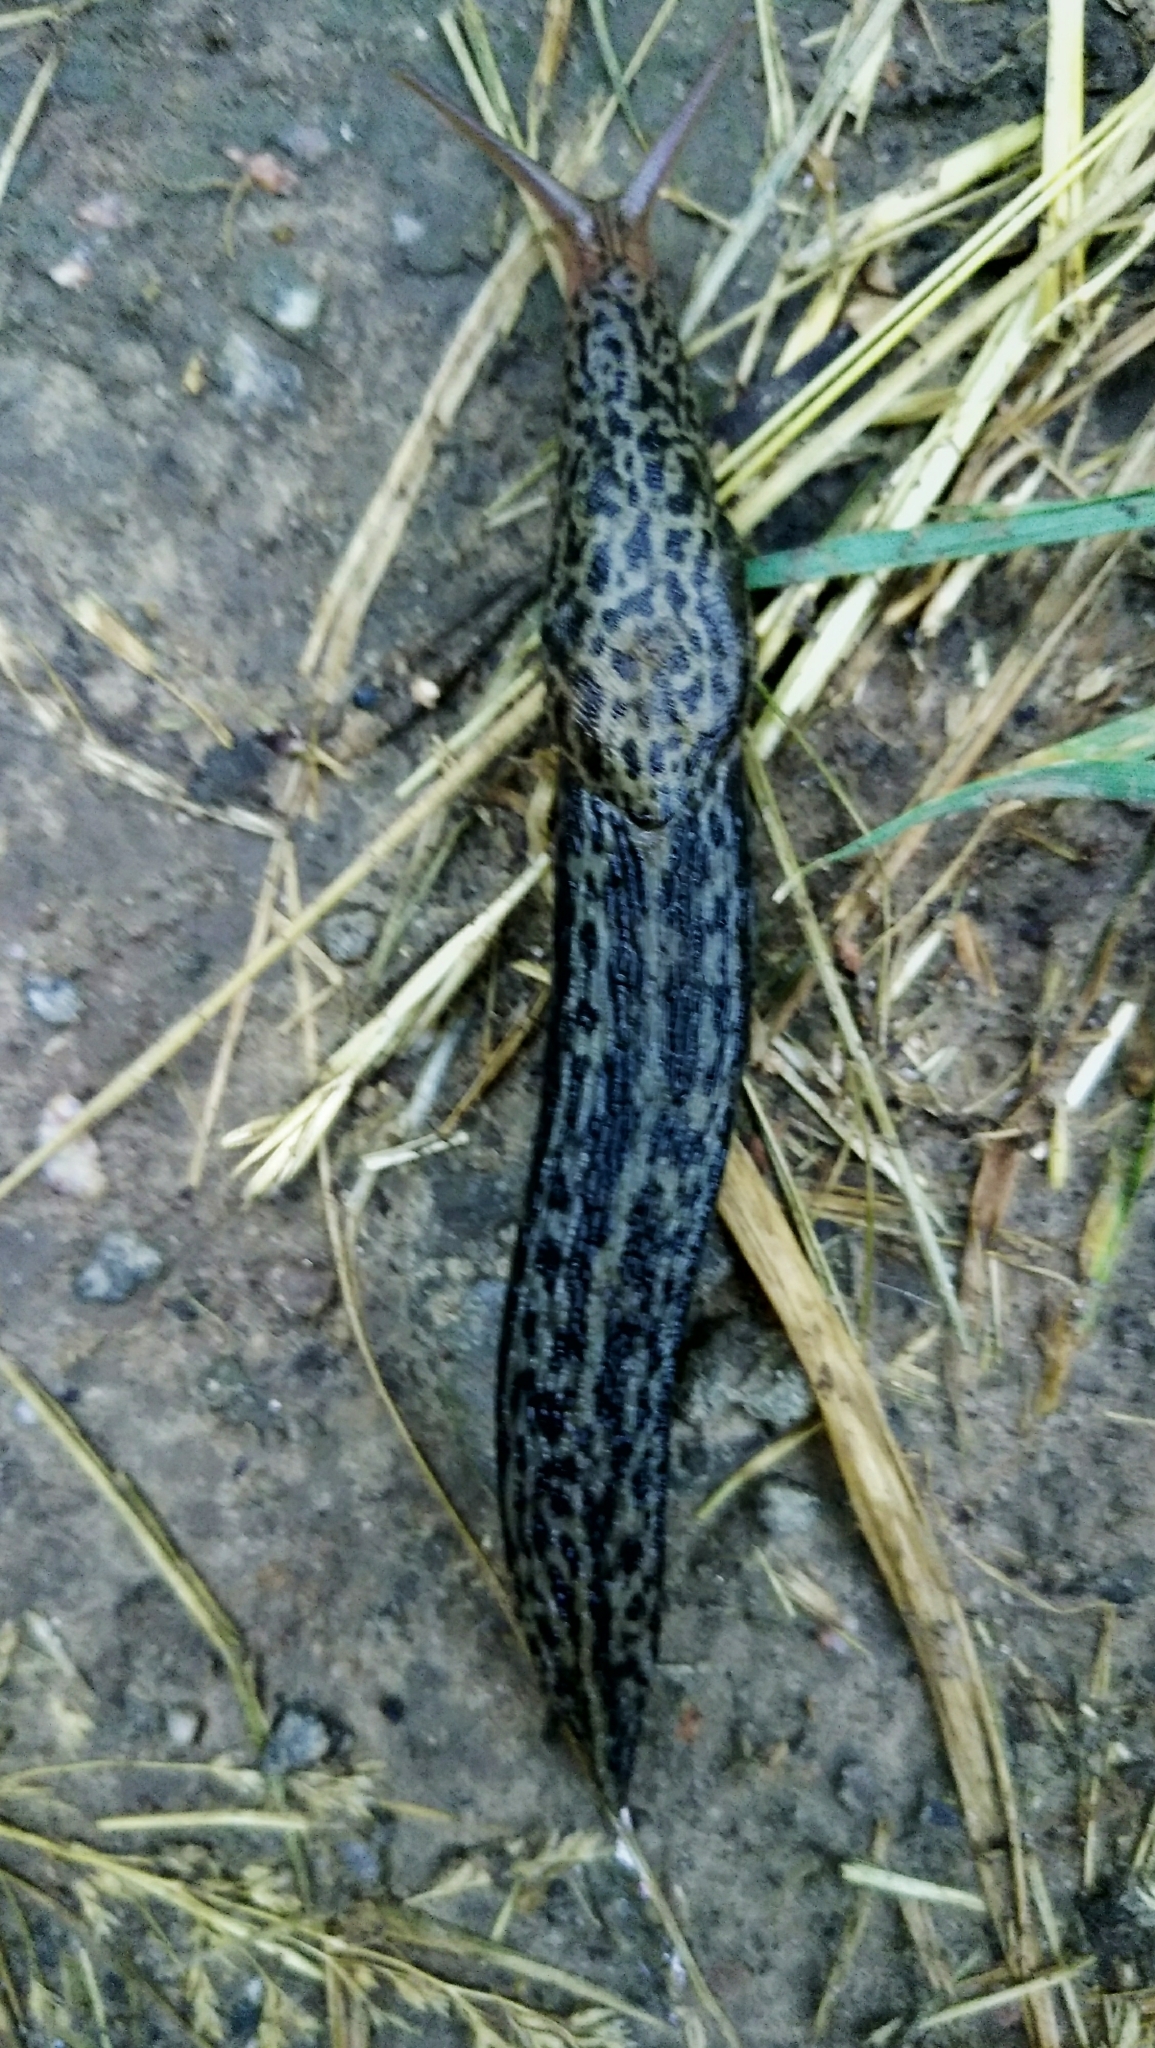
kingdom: Animalia
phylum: Mollusca
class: Gastropoda
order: Stylommatophora
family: Limacidae
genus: Limax
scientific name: Limax maximus
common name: Great grey slug
